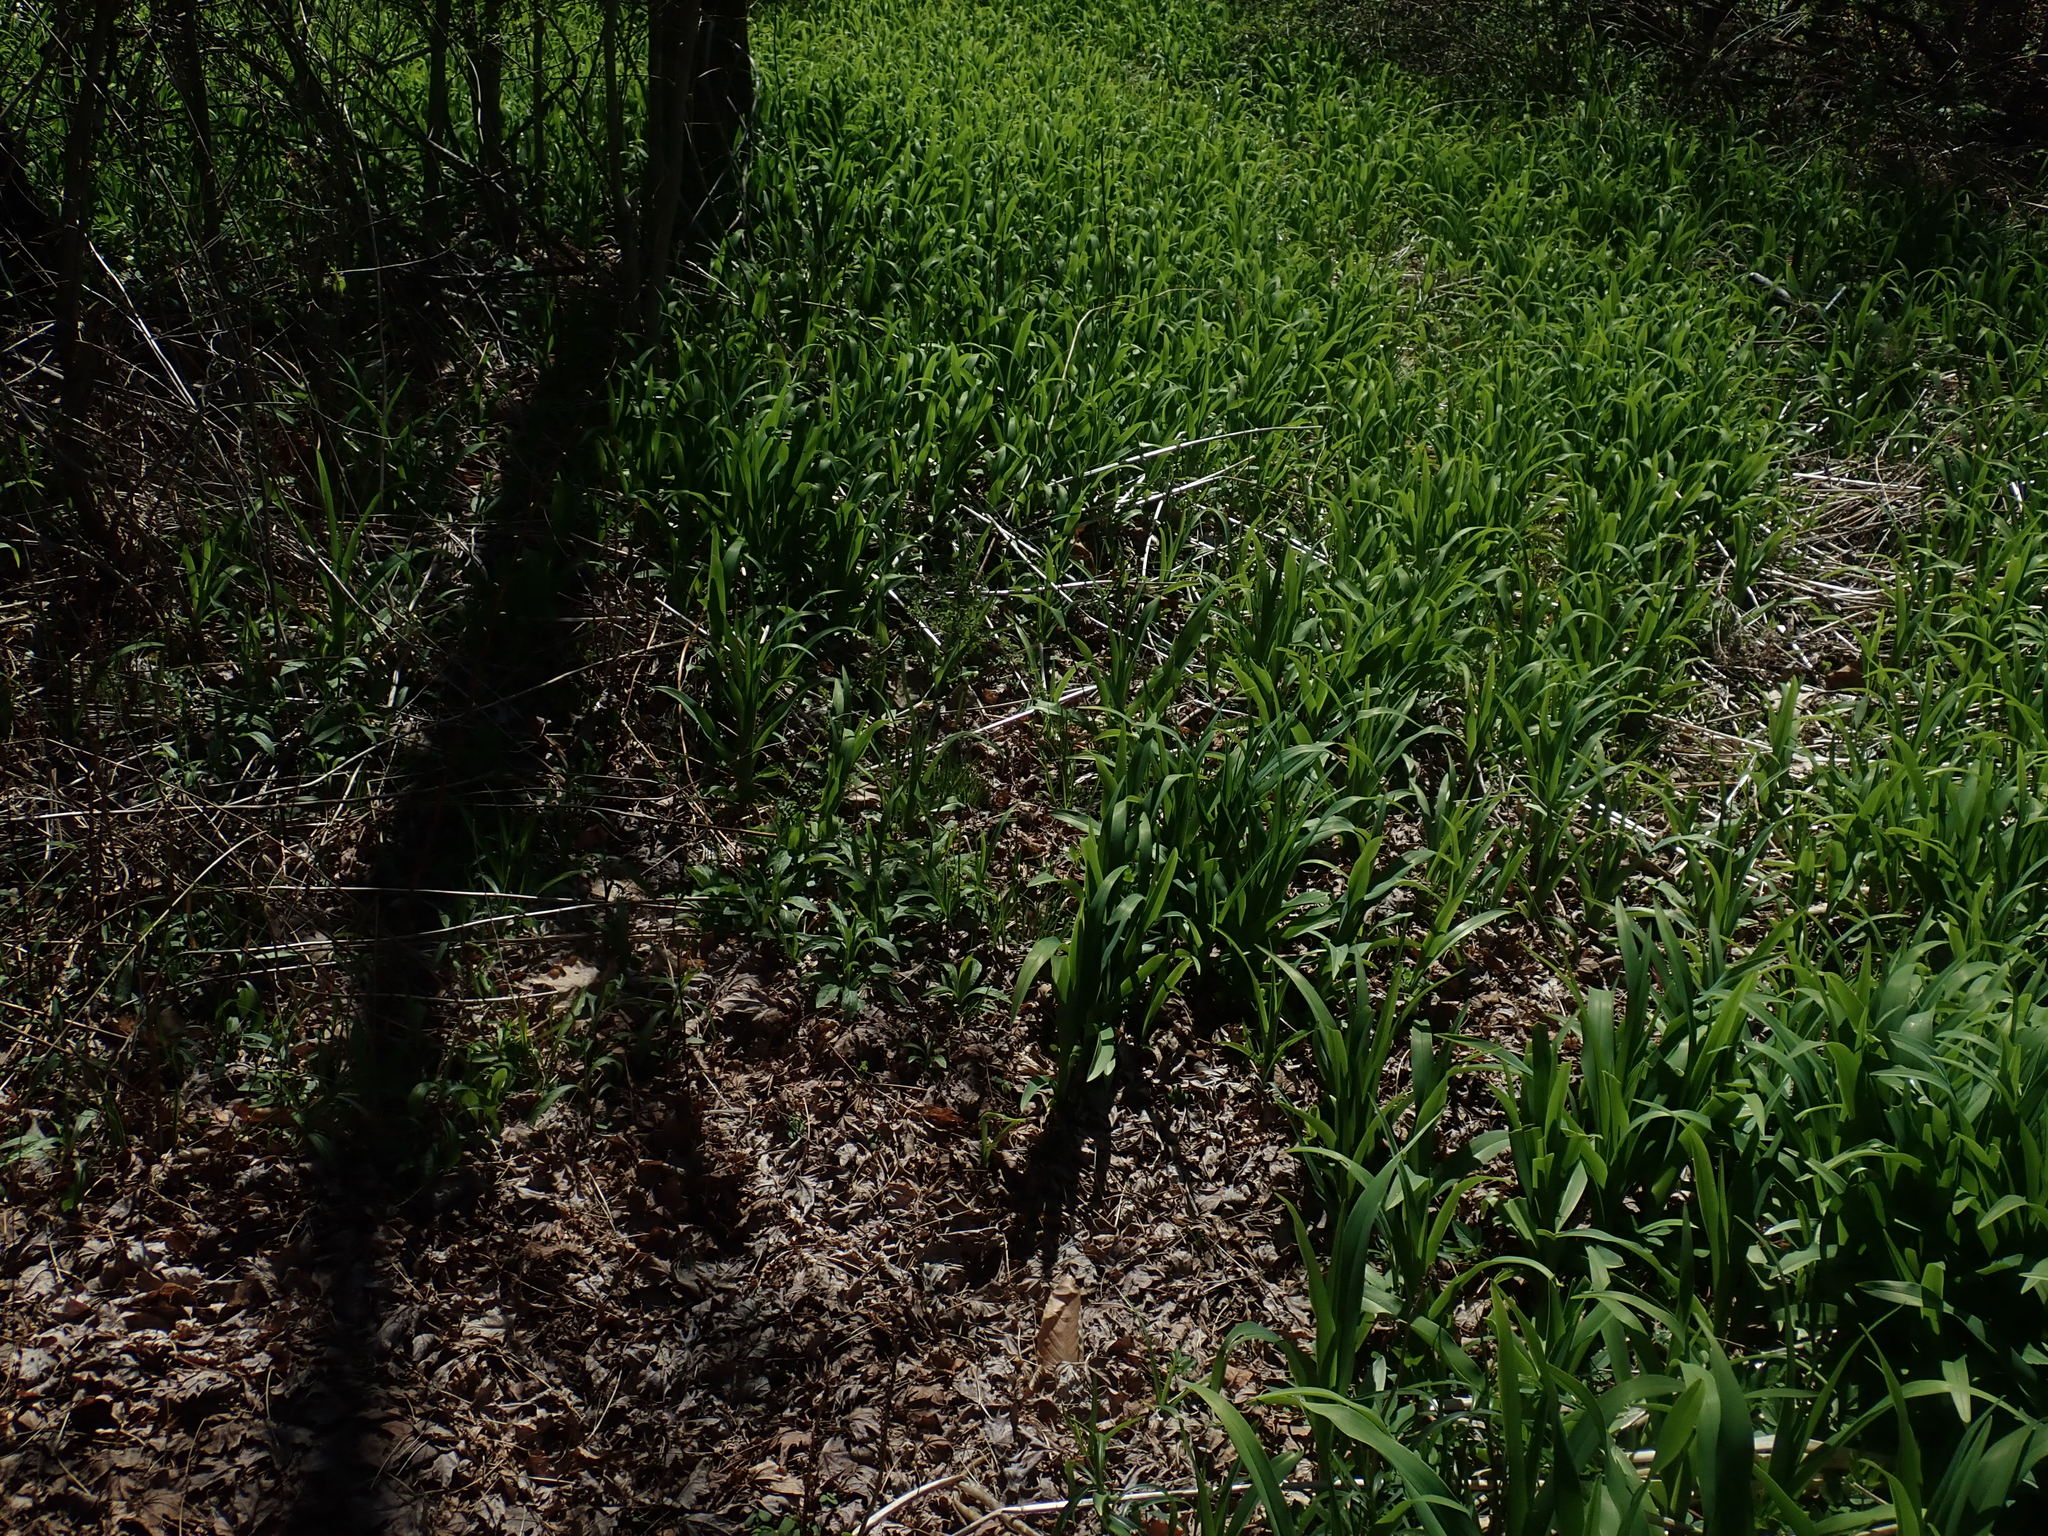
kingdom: Plantae
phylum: Tracheophyta
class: Liliopsida
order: Asparagales
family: Asphodelaceae
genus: Hemerocallis
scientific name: Hemerocallis fulva
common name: Orange day-lily
